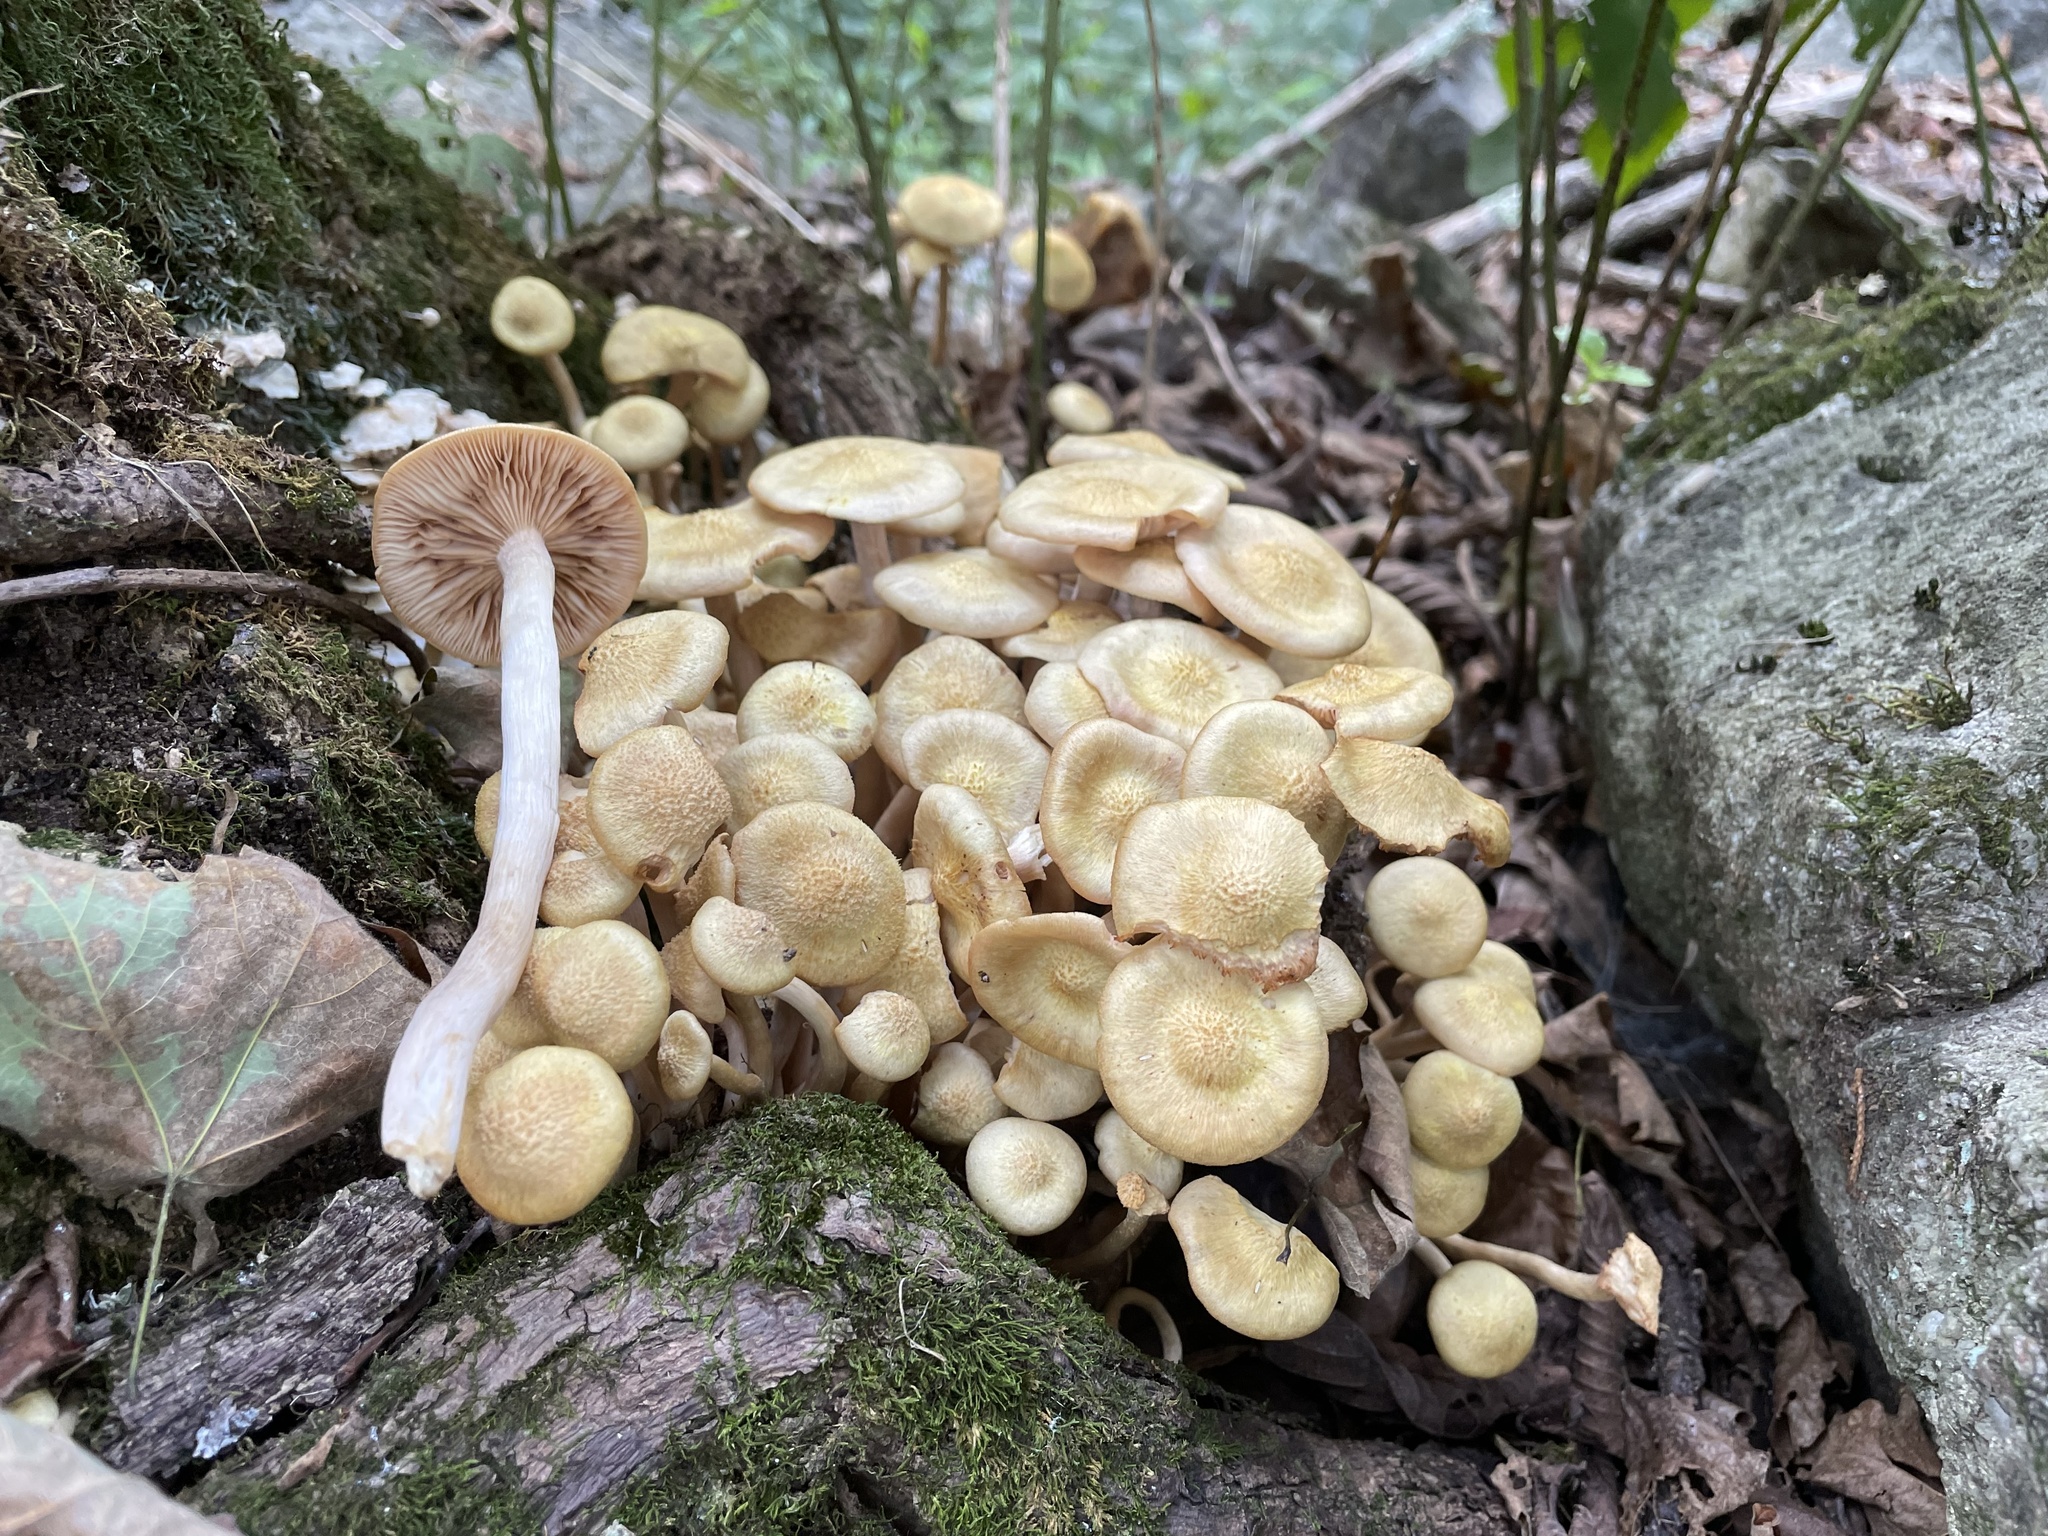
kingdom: Fungi
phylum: Basidiomycota
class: Agaricomycetes
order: Agaricales
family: Physalacriaceae
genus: Desarmillaria
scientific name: Desarmillaria caespitosa
